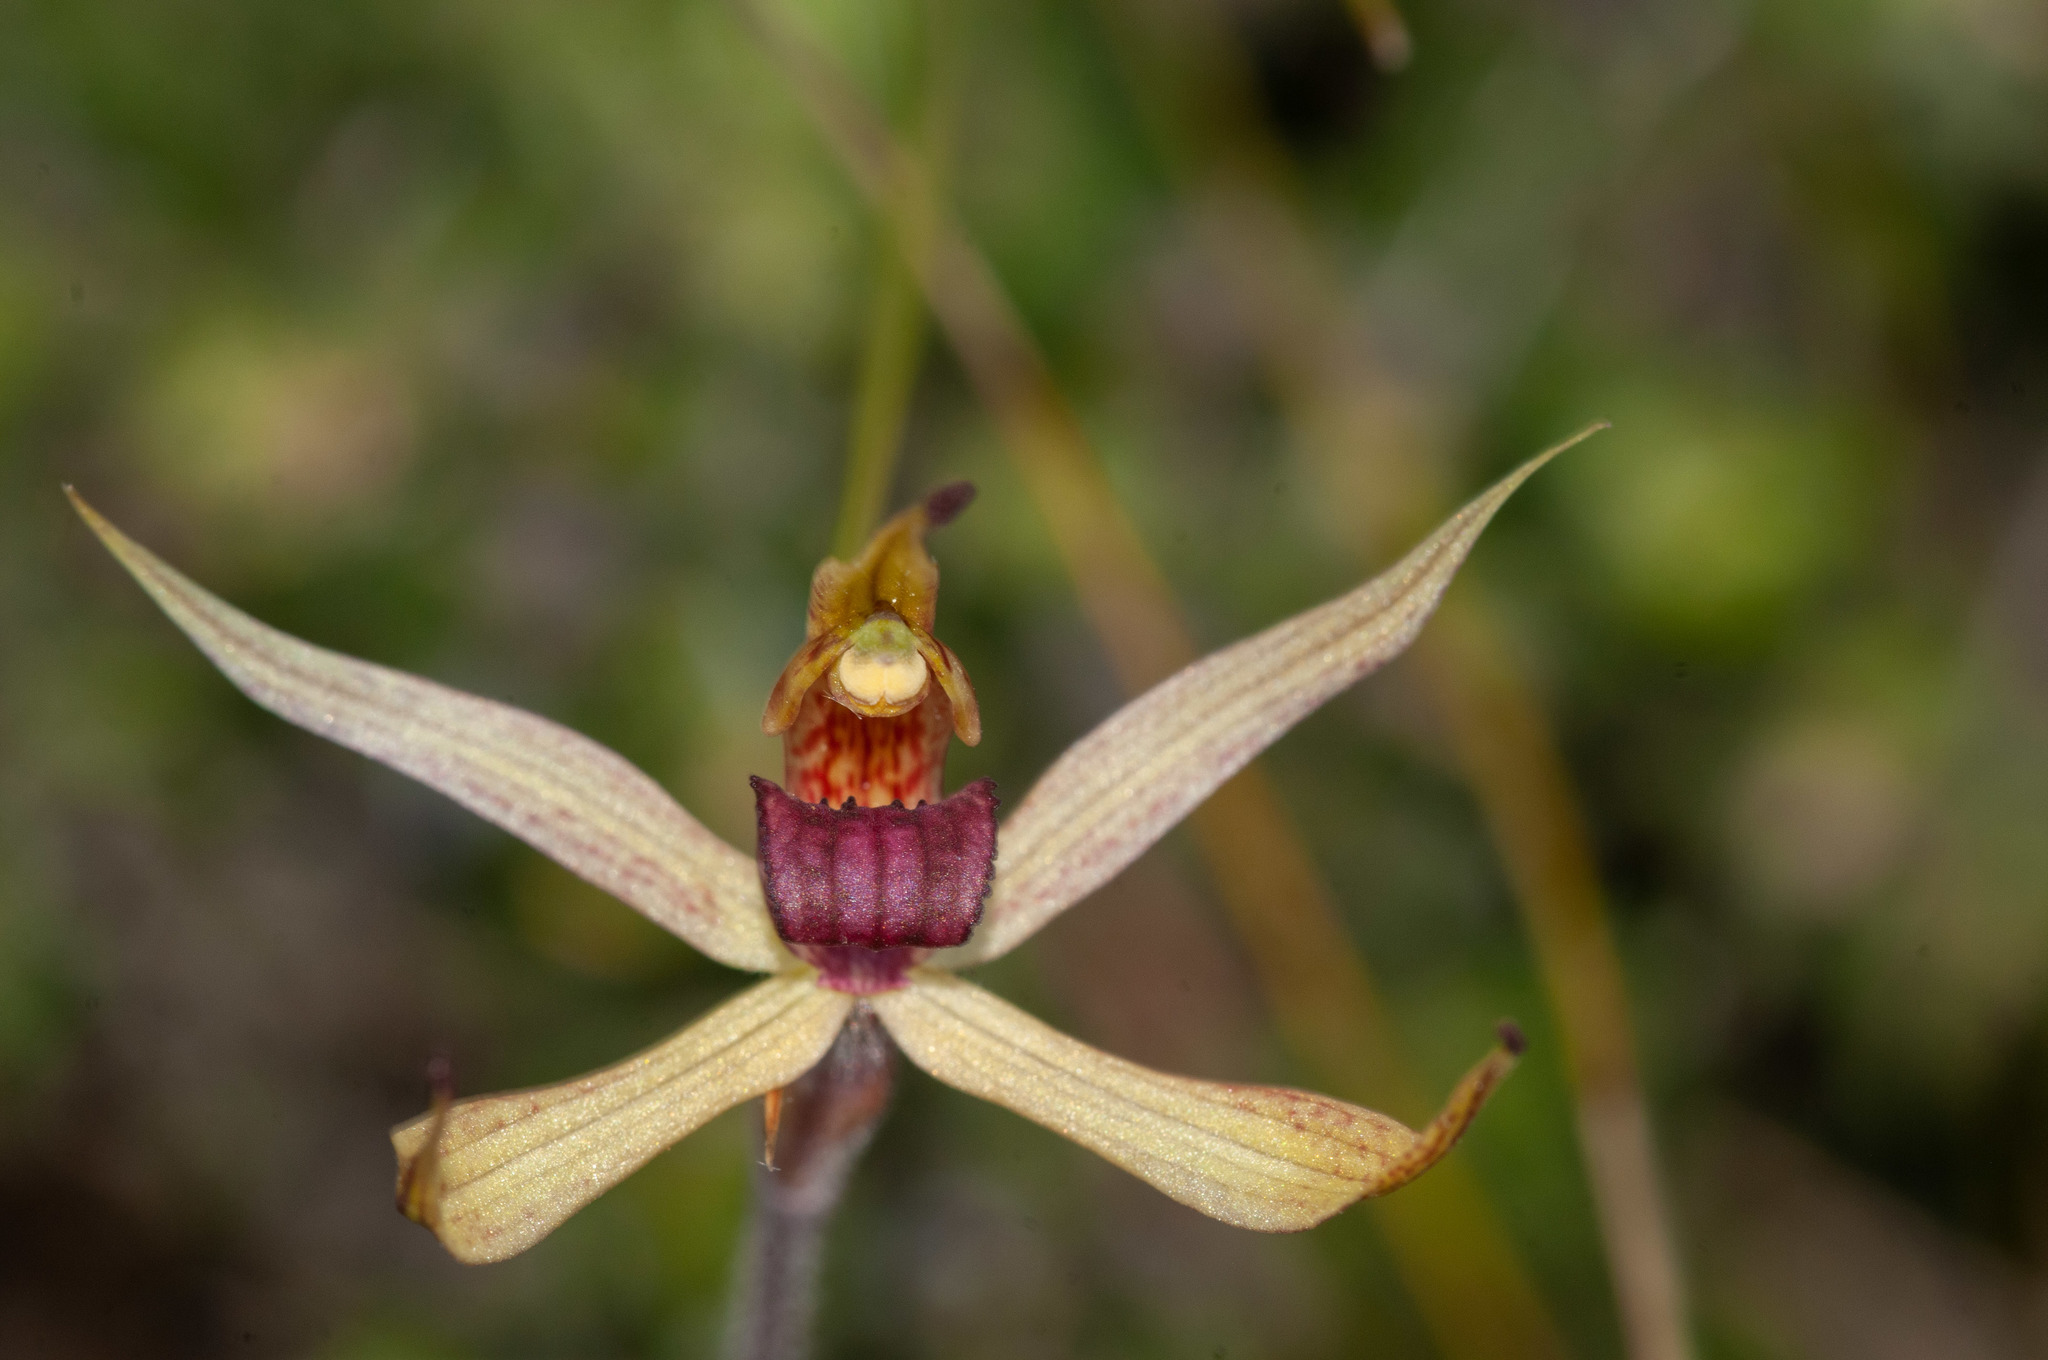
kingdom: Plantae
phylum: Tracheophyta
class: Liliopsida
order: Asparagales
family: Orchidaceae
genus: Caladenia
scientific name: Caladenia leptochila
